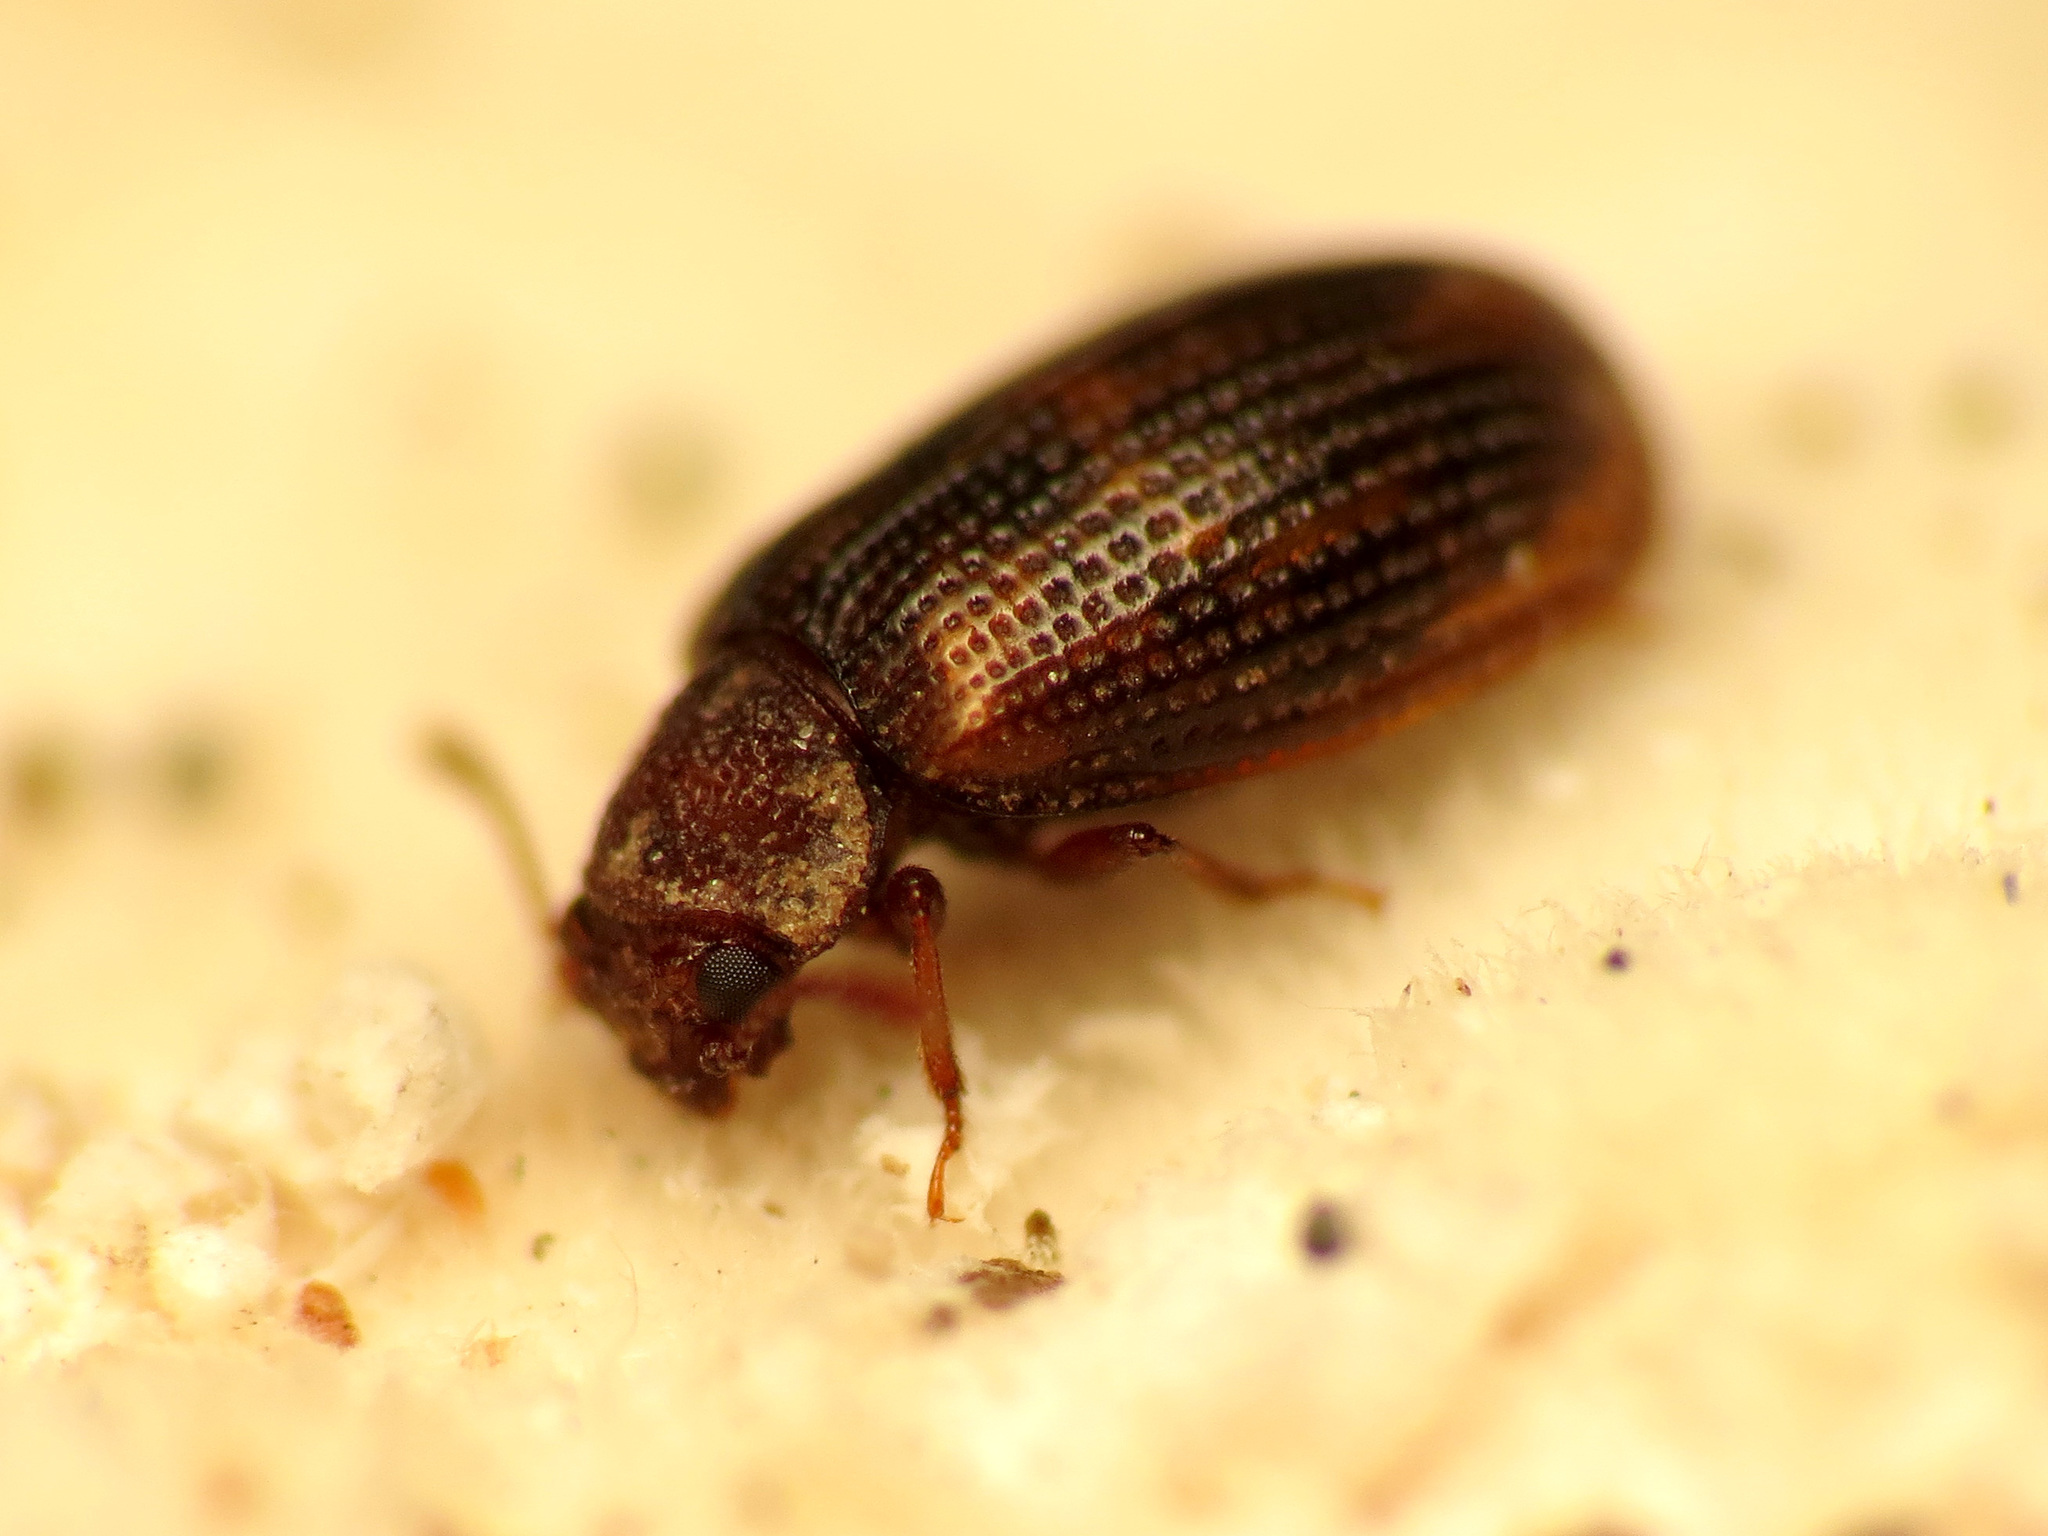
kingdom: Animalia
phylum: Arthropoda
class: Insecta
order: Coleoptera
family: Derodontidae
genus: Derodontus
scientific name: Derodontus esotericus
